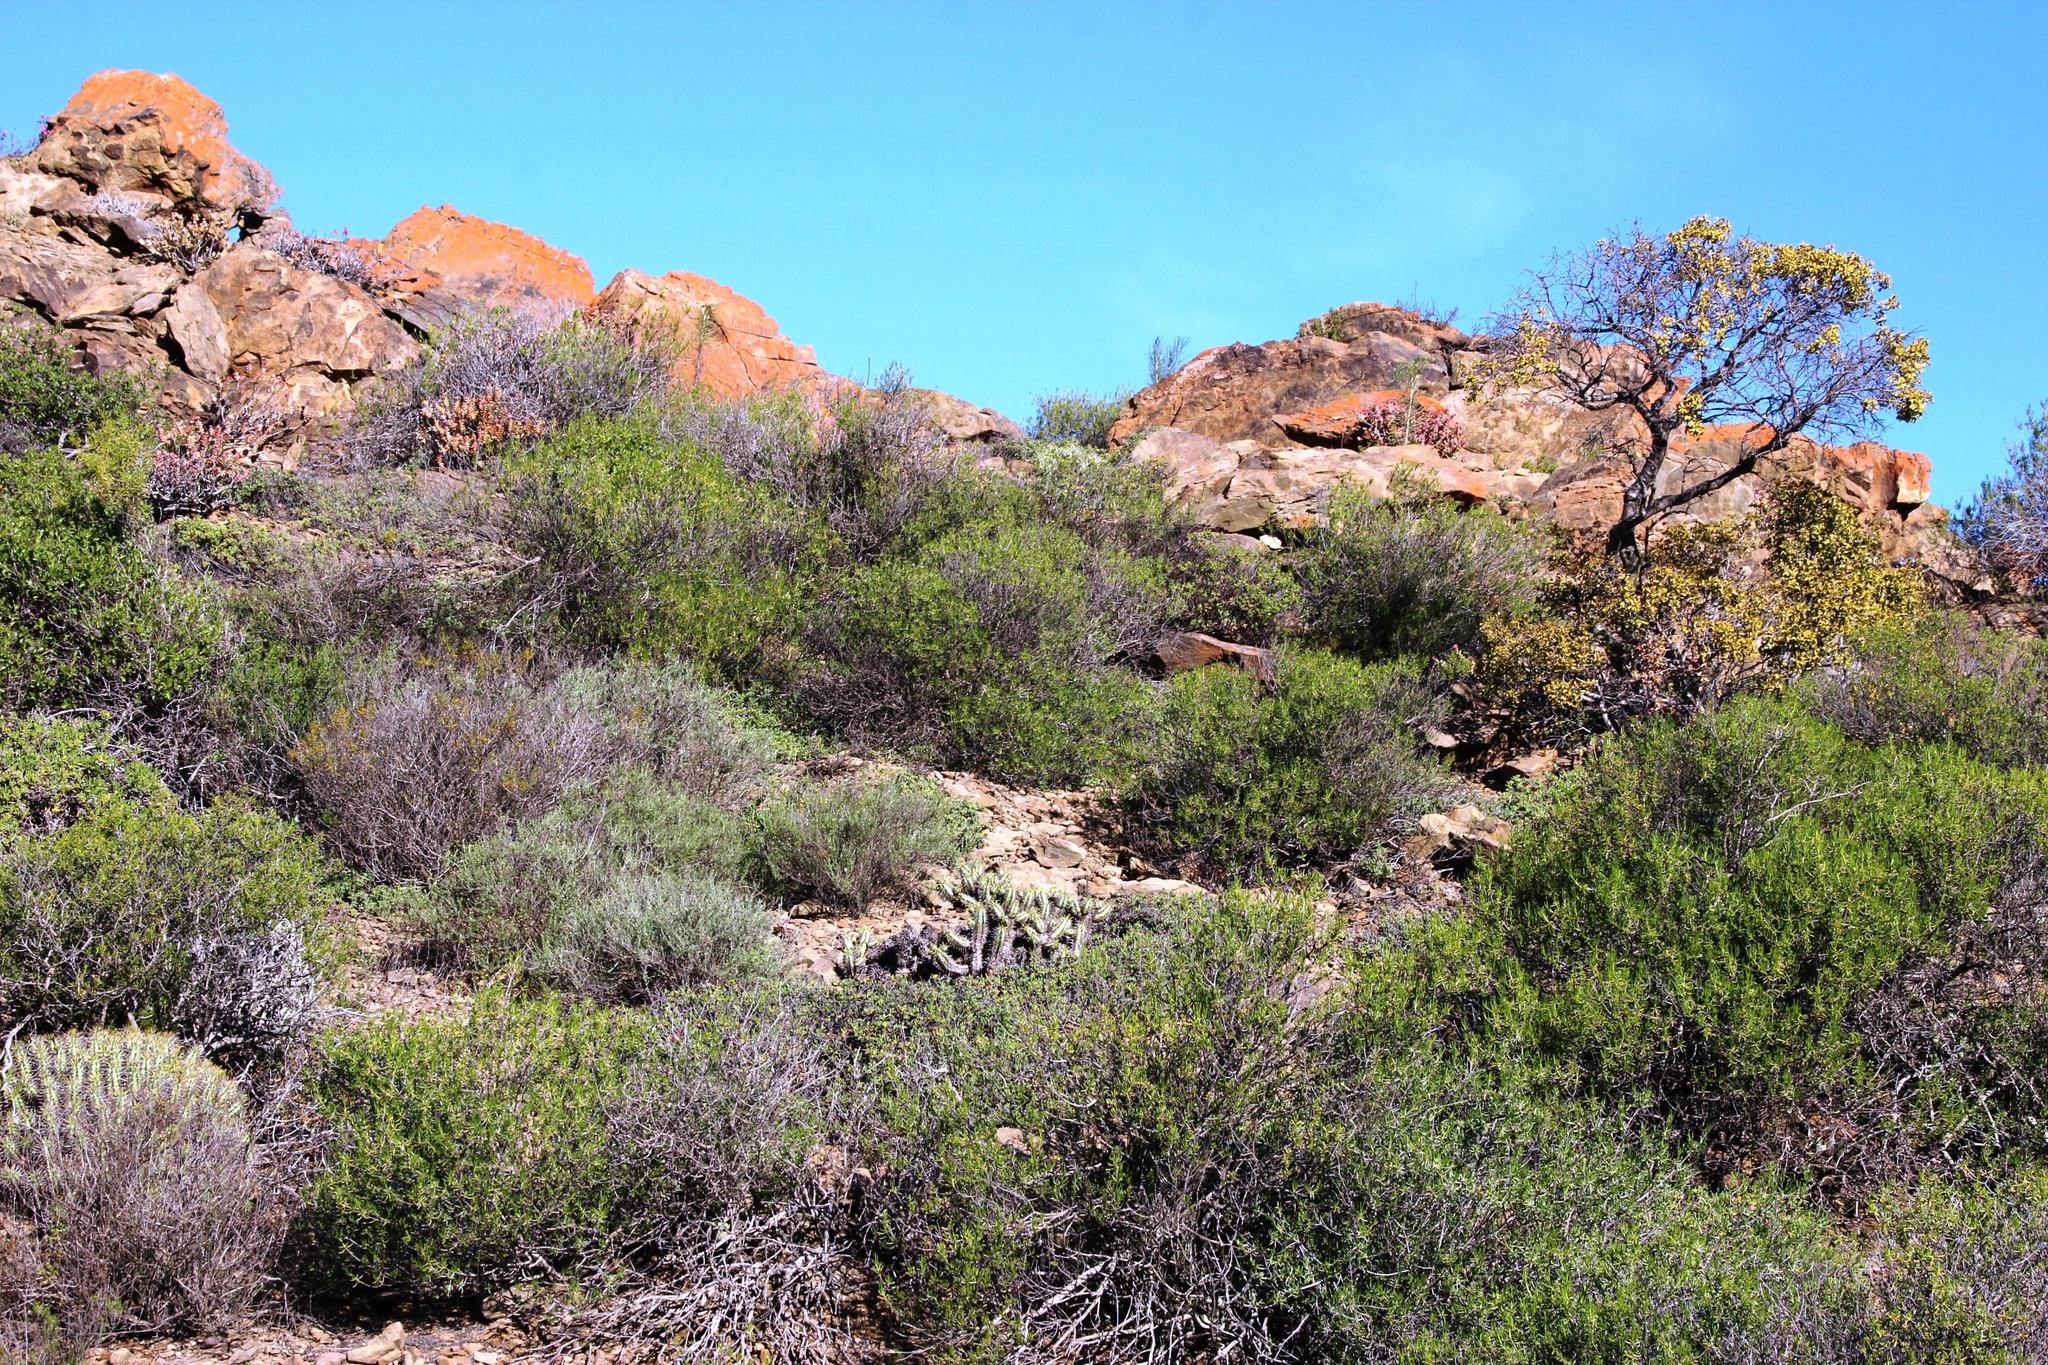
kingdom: Plantae
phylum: Tracheophyta
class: Magnoliopsida
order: Malpighiales
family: Euphorbiaceae
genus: Euphorbia
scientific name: Euphorbia nesemannii
